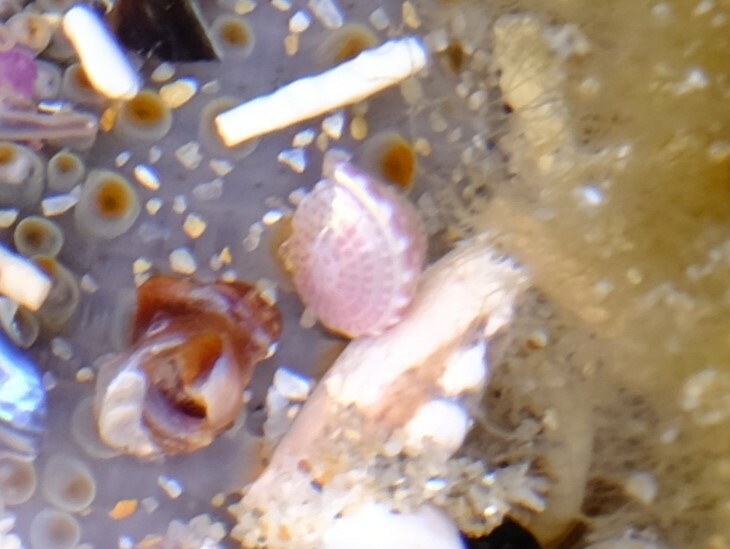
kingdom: Animalia
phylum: Mollusca
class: Gastropoda
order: Trochida
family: Trochidae
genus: Cratidentium
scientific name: Cratidentium tiberianum
